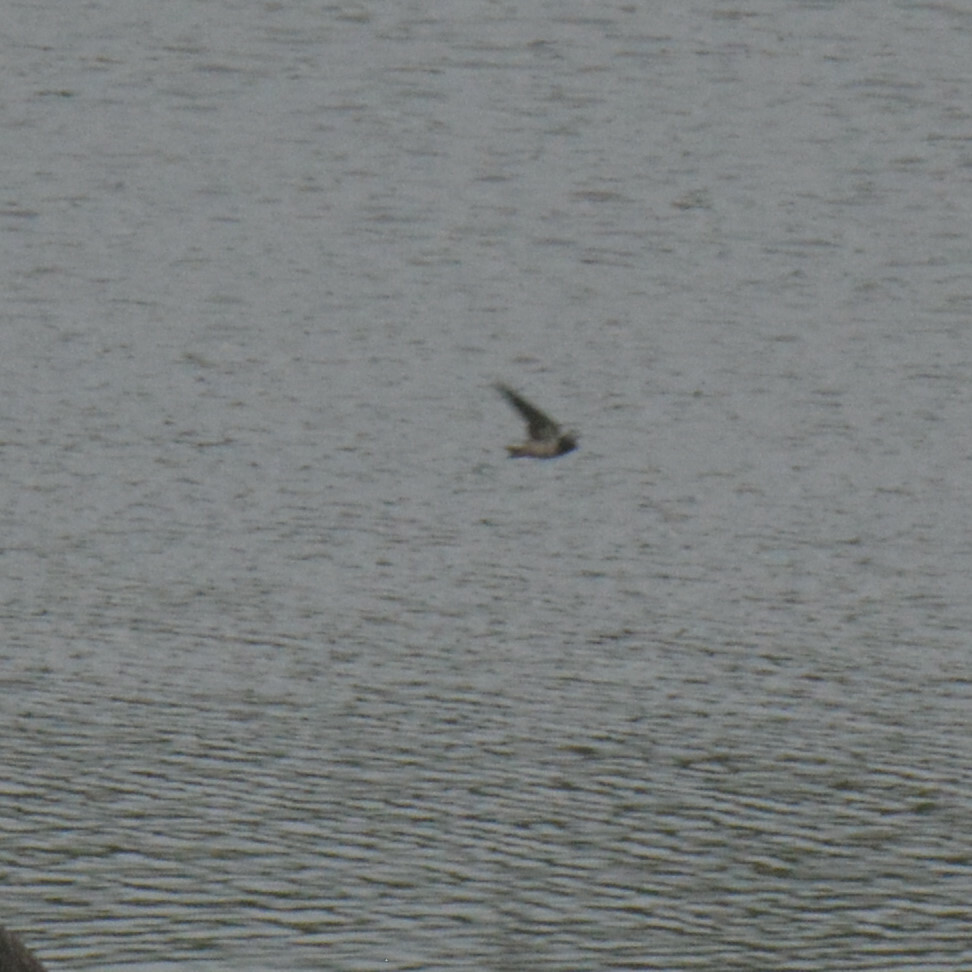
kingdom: Animalia
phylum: Chordata
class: Aves
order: Passeriformes
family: Hirundinidae
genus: Hirundo
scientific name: Hirundo rustica
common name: Barn swallow
